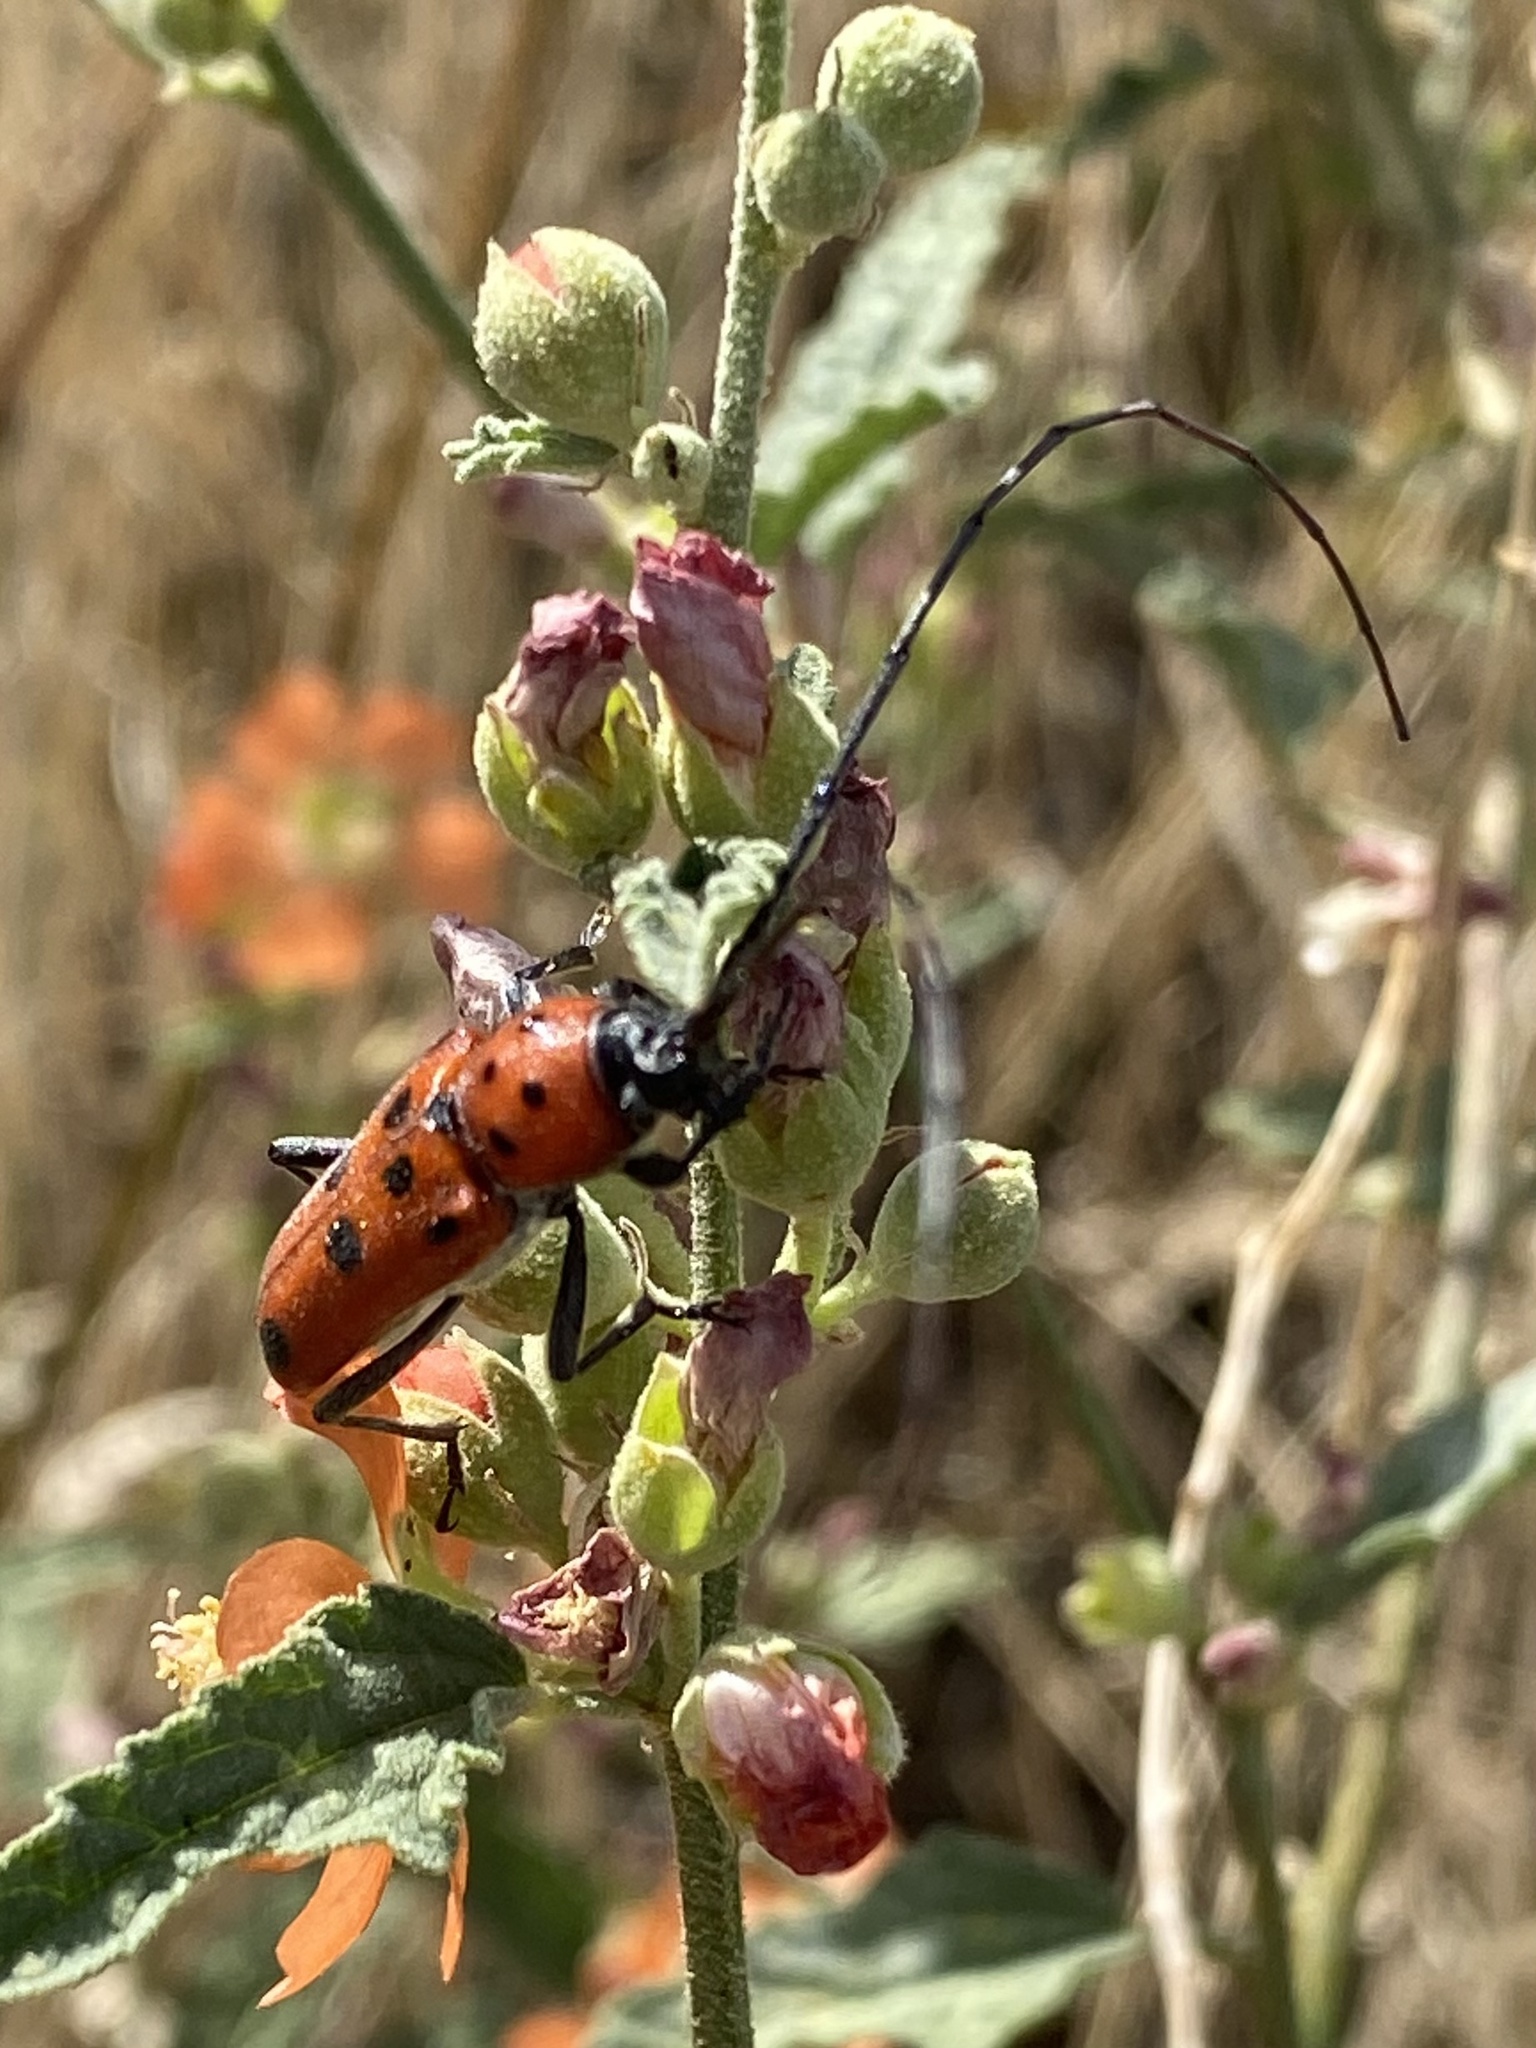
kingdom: Animalia
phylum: Arthropoda
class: Insecta
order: Coleoptera
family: Cerambycidae
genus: Tylosis
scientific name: Tylosis maculatus
